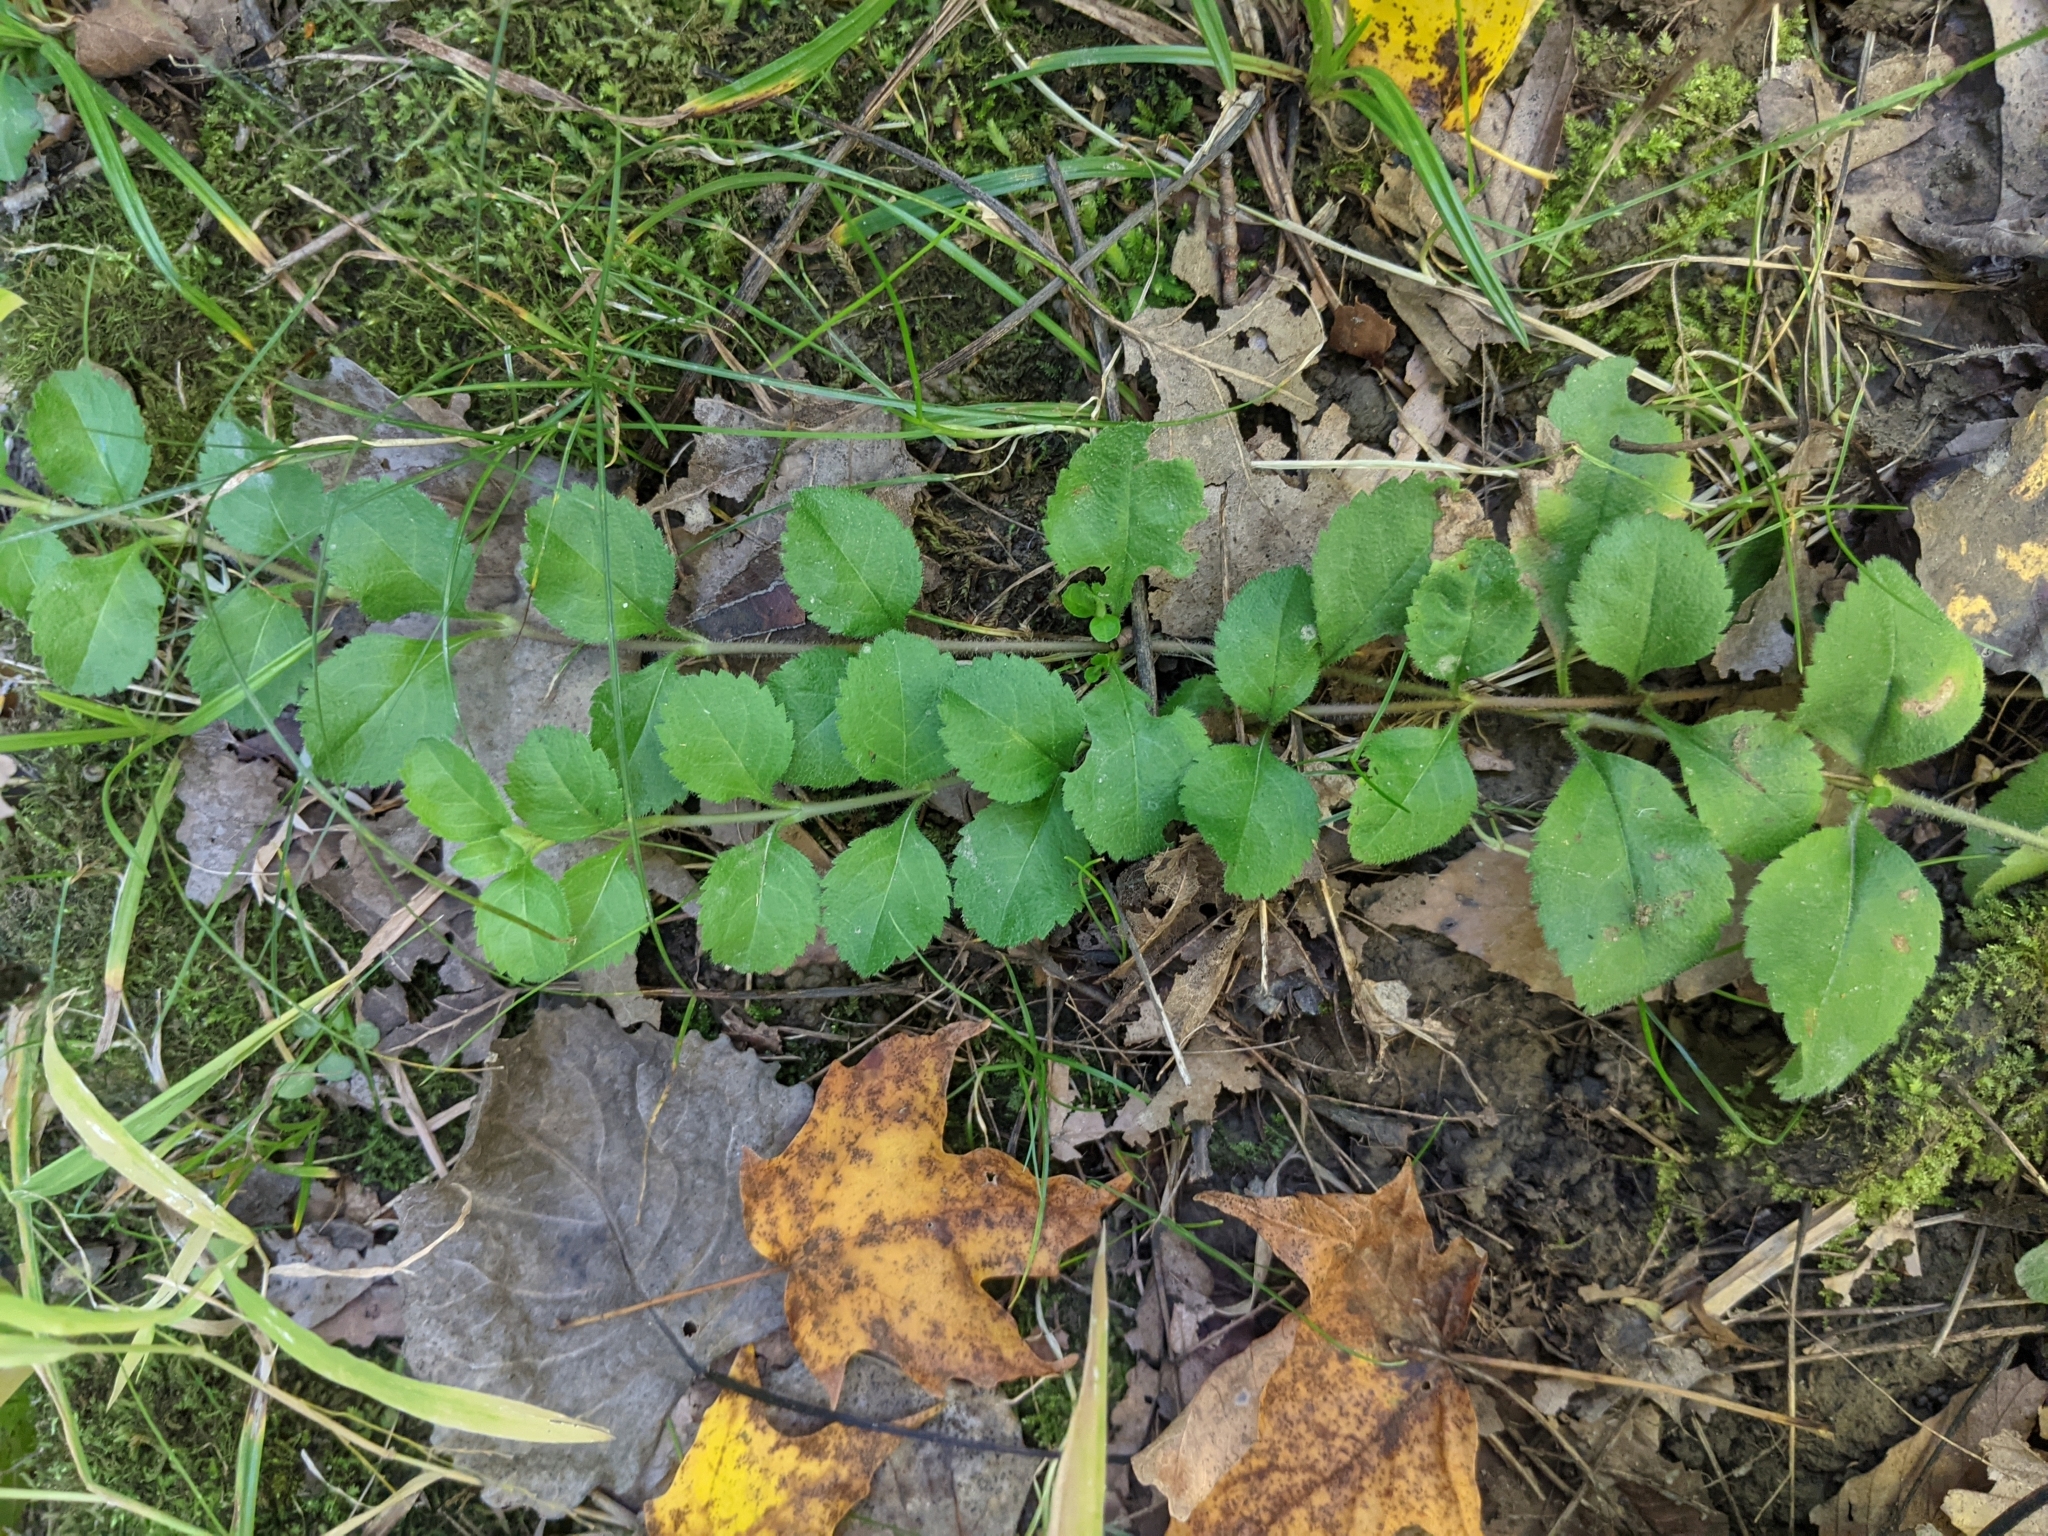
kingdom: Plantae
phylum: Tracheophyta
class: Magnoliopsida
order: Lamiales
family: Plantaginaceae
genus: Veronica
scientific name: Veronica officinalis
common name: Common speedwell
